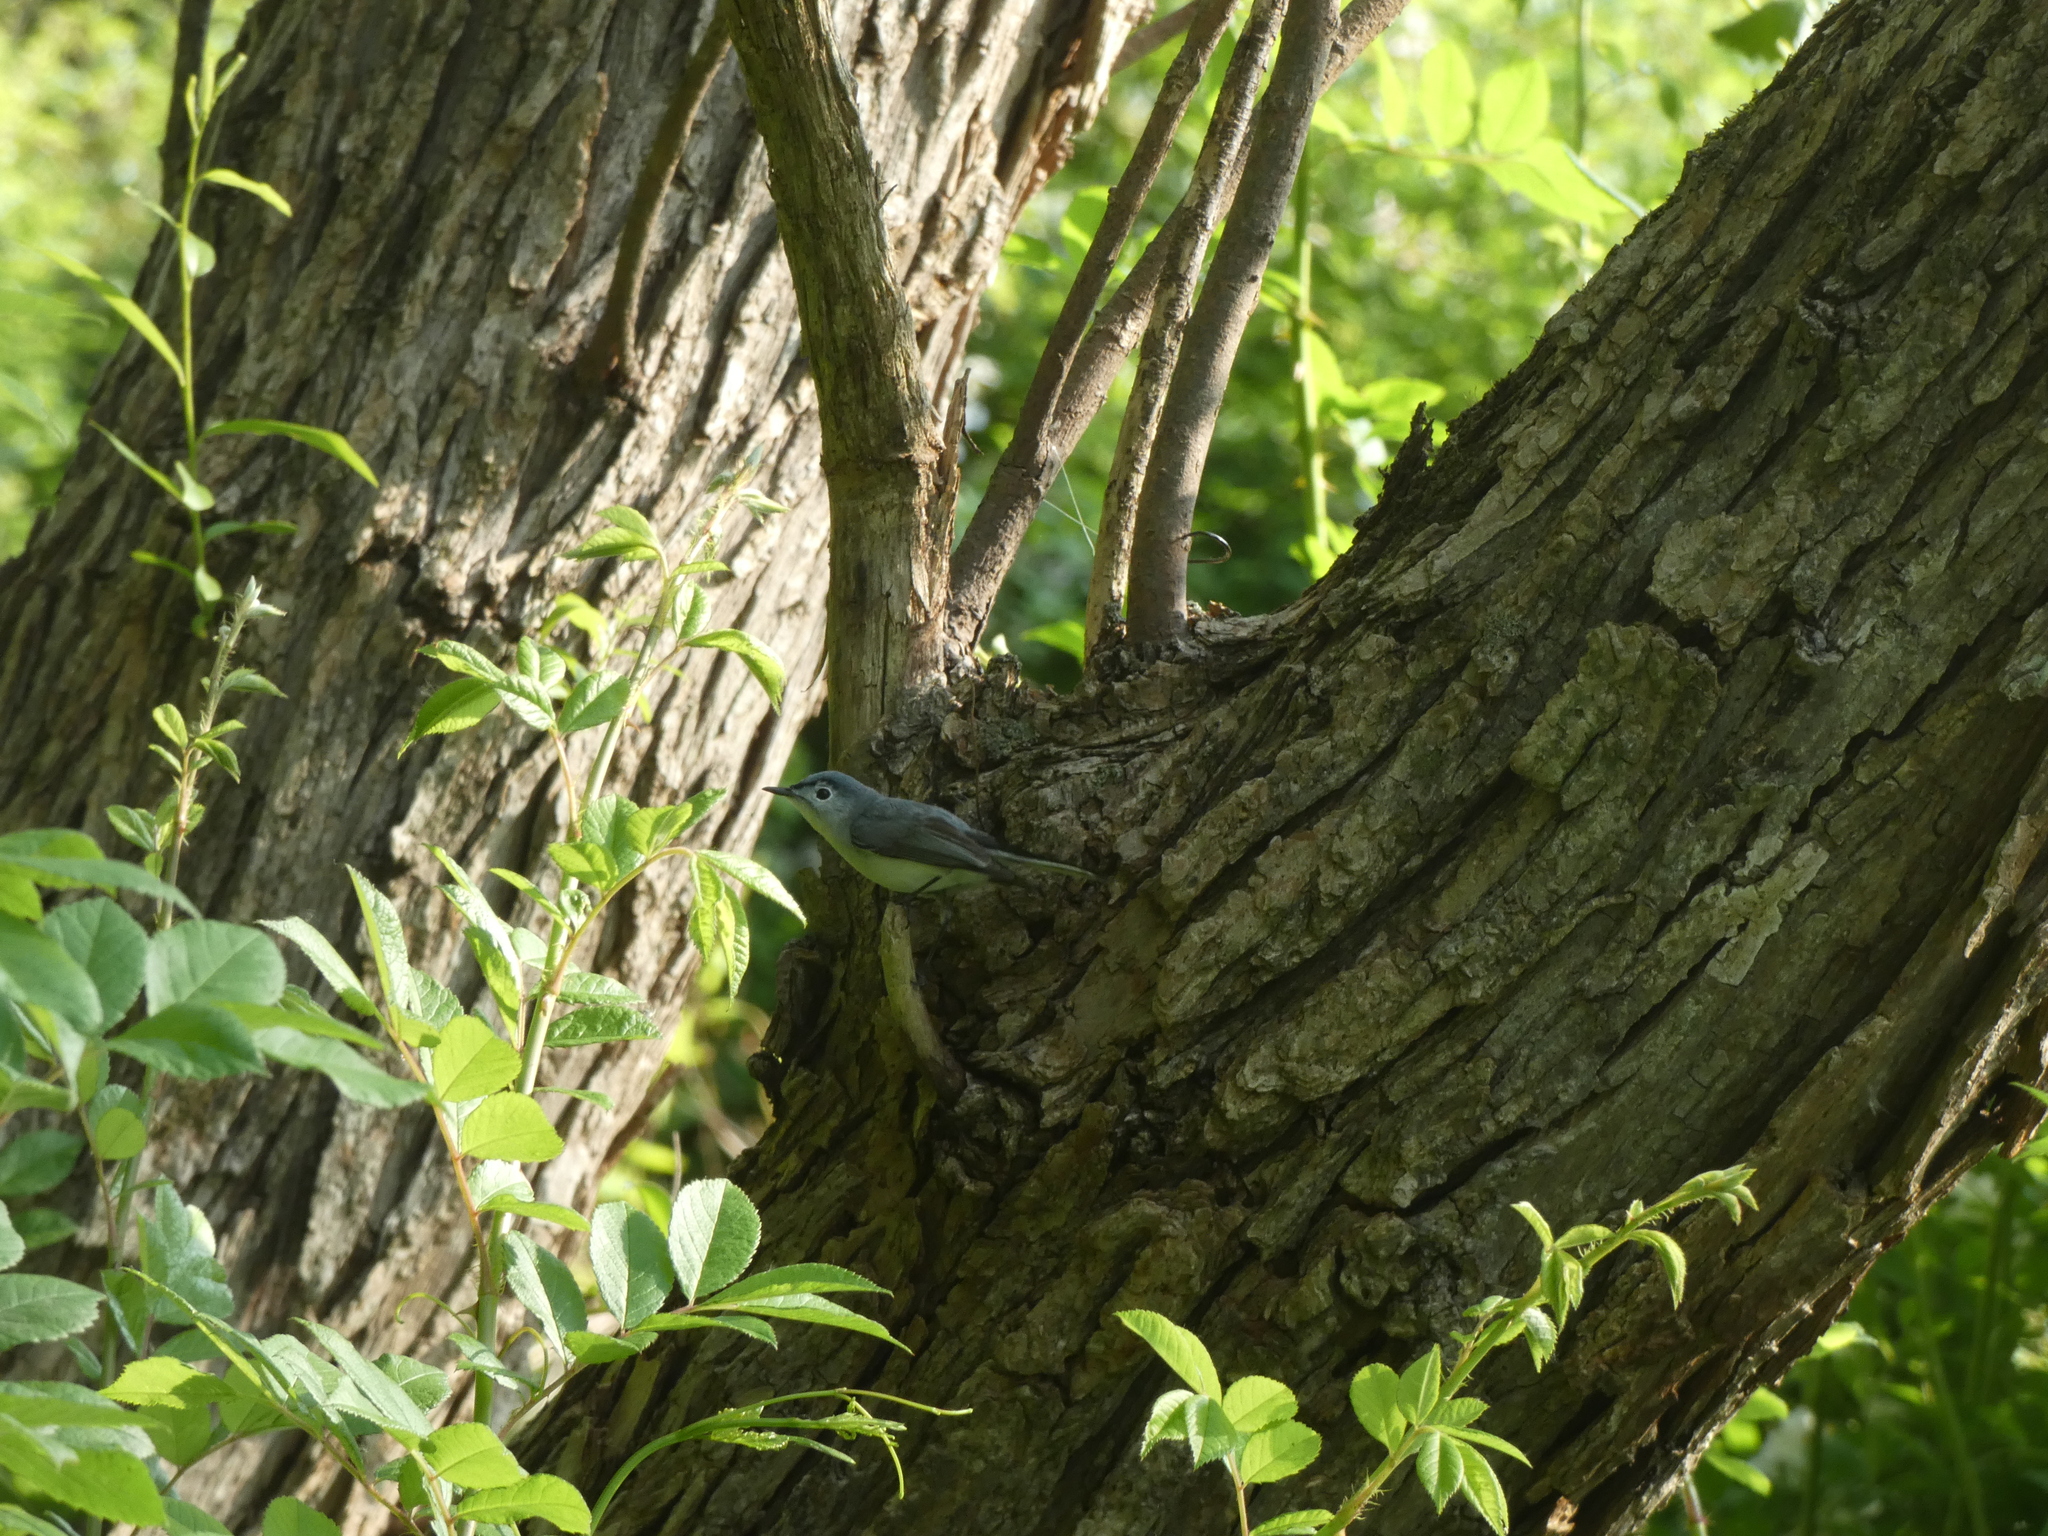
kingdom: Animalia
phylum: Chordata
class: Aves
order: Passeriformes
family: Polioptilidae
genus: Polioptila
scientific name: Polioptila caerulea
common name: Blue-gray gnatcatcher
